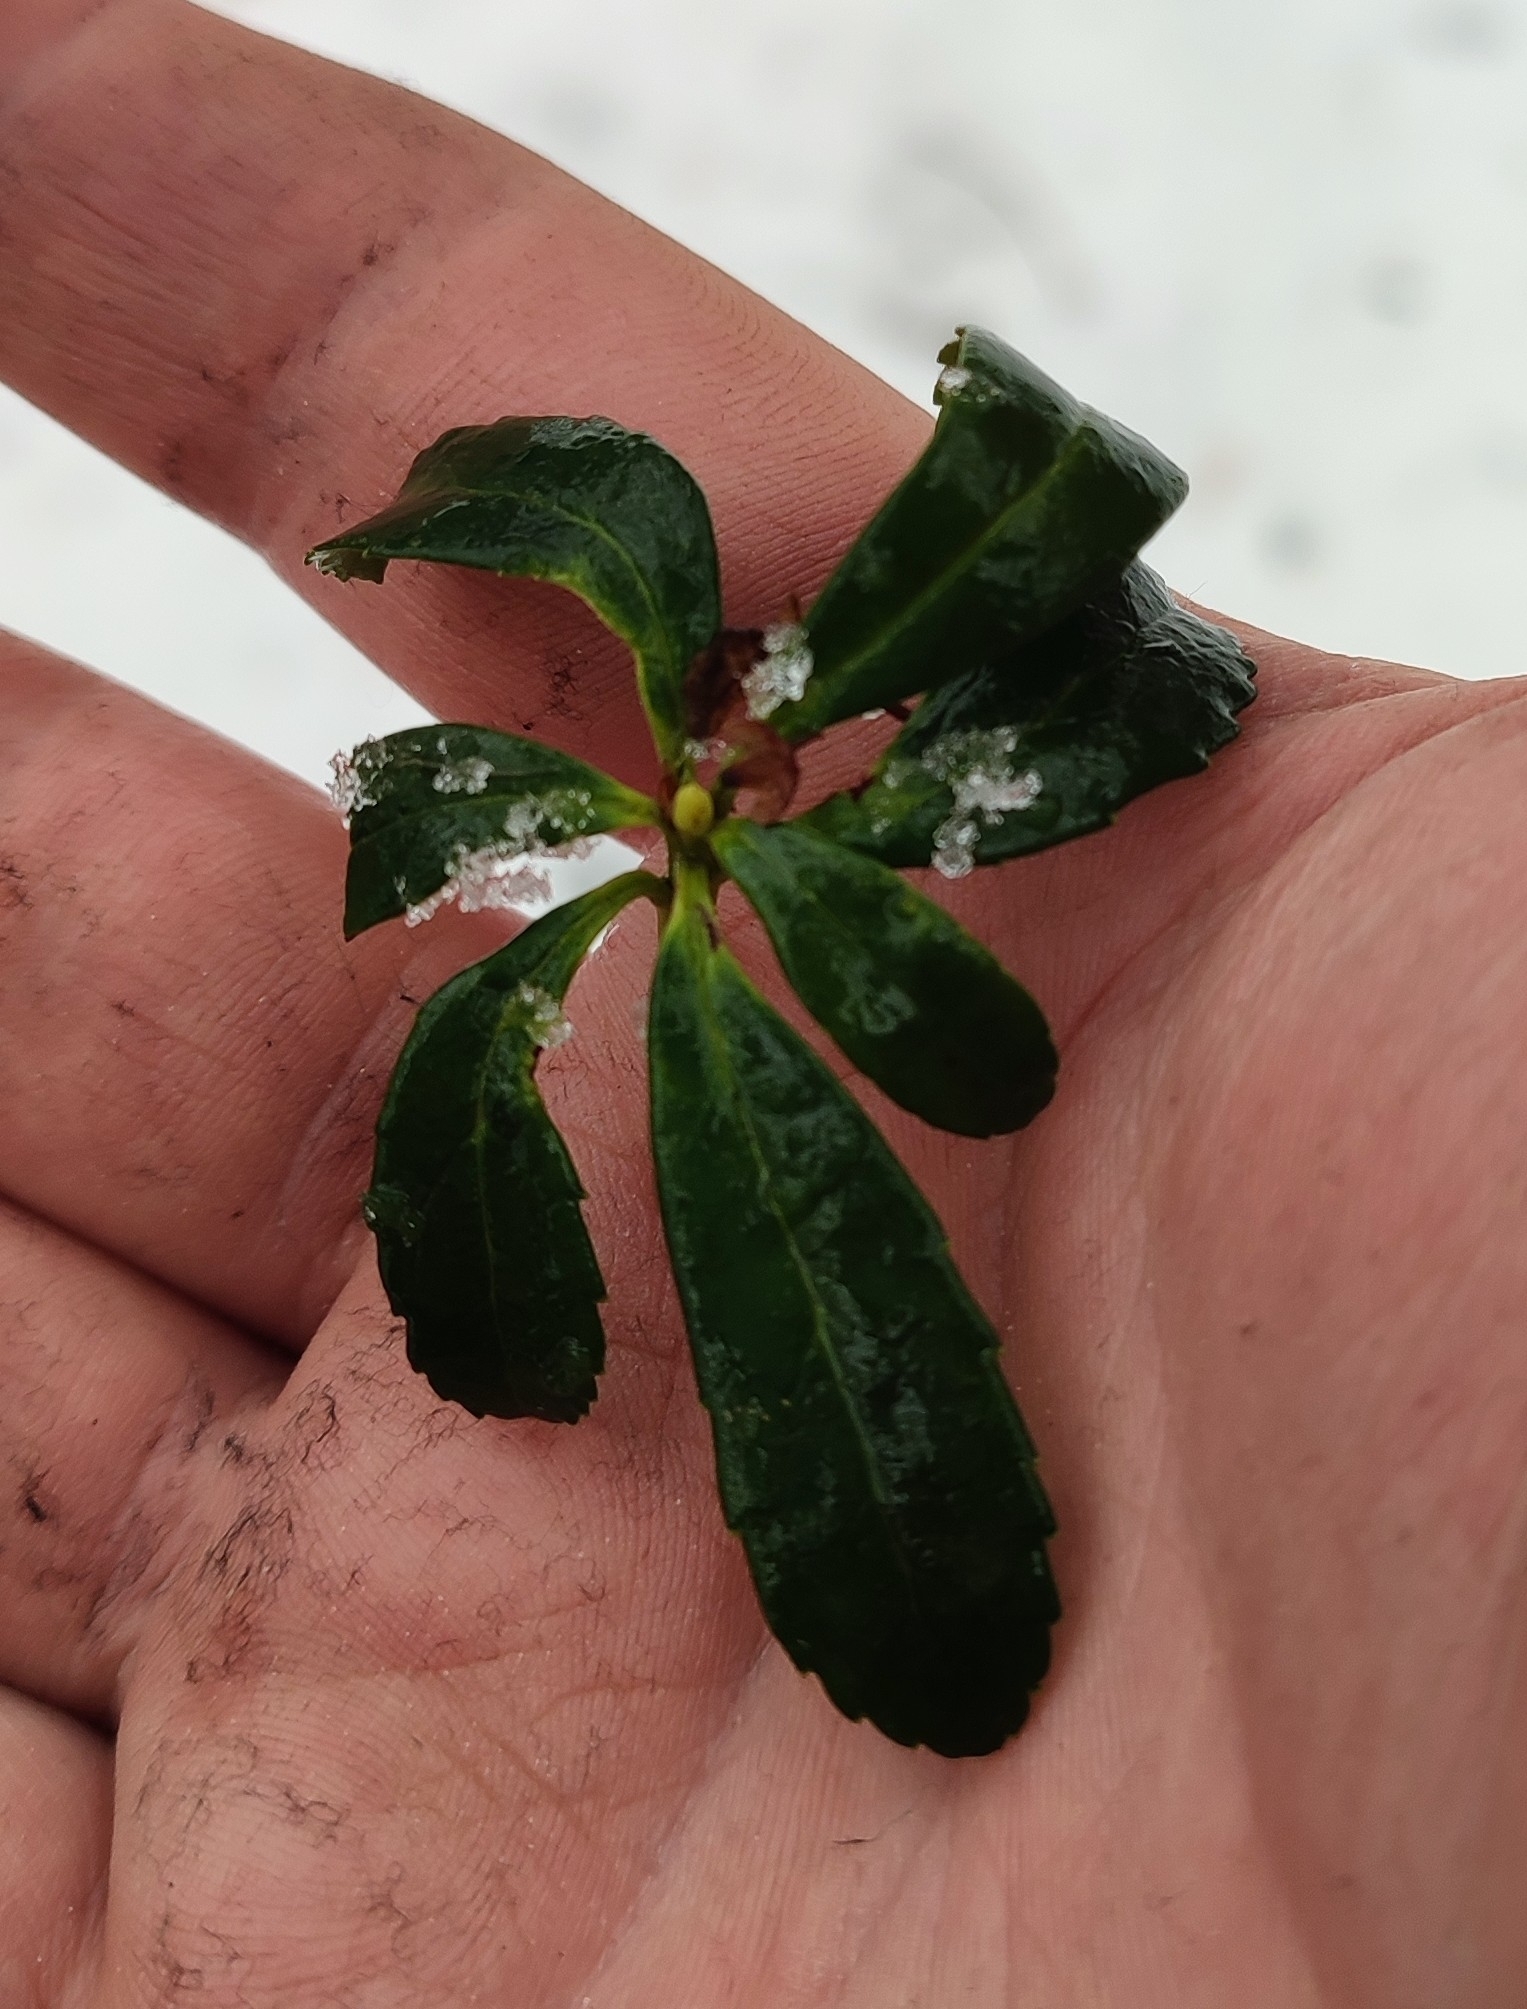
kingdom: Plantae
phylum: Tracheophyta
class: Magnoliopsida
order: Ericales
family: Ericaceae
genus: Chimaphila
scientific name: Chimaphila umbellata
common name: Pipsissewa
